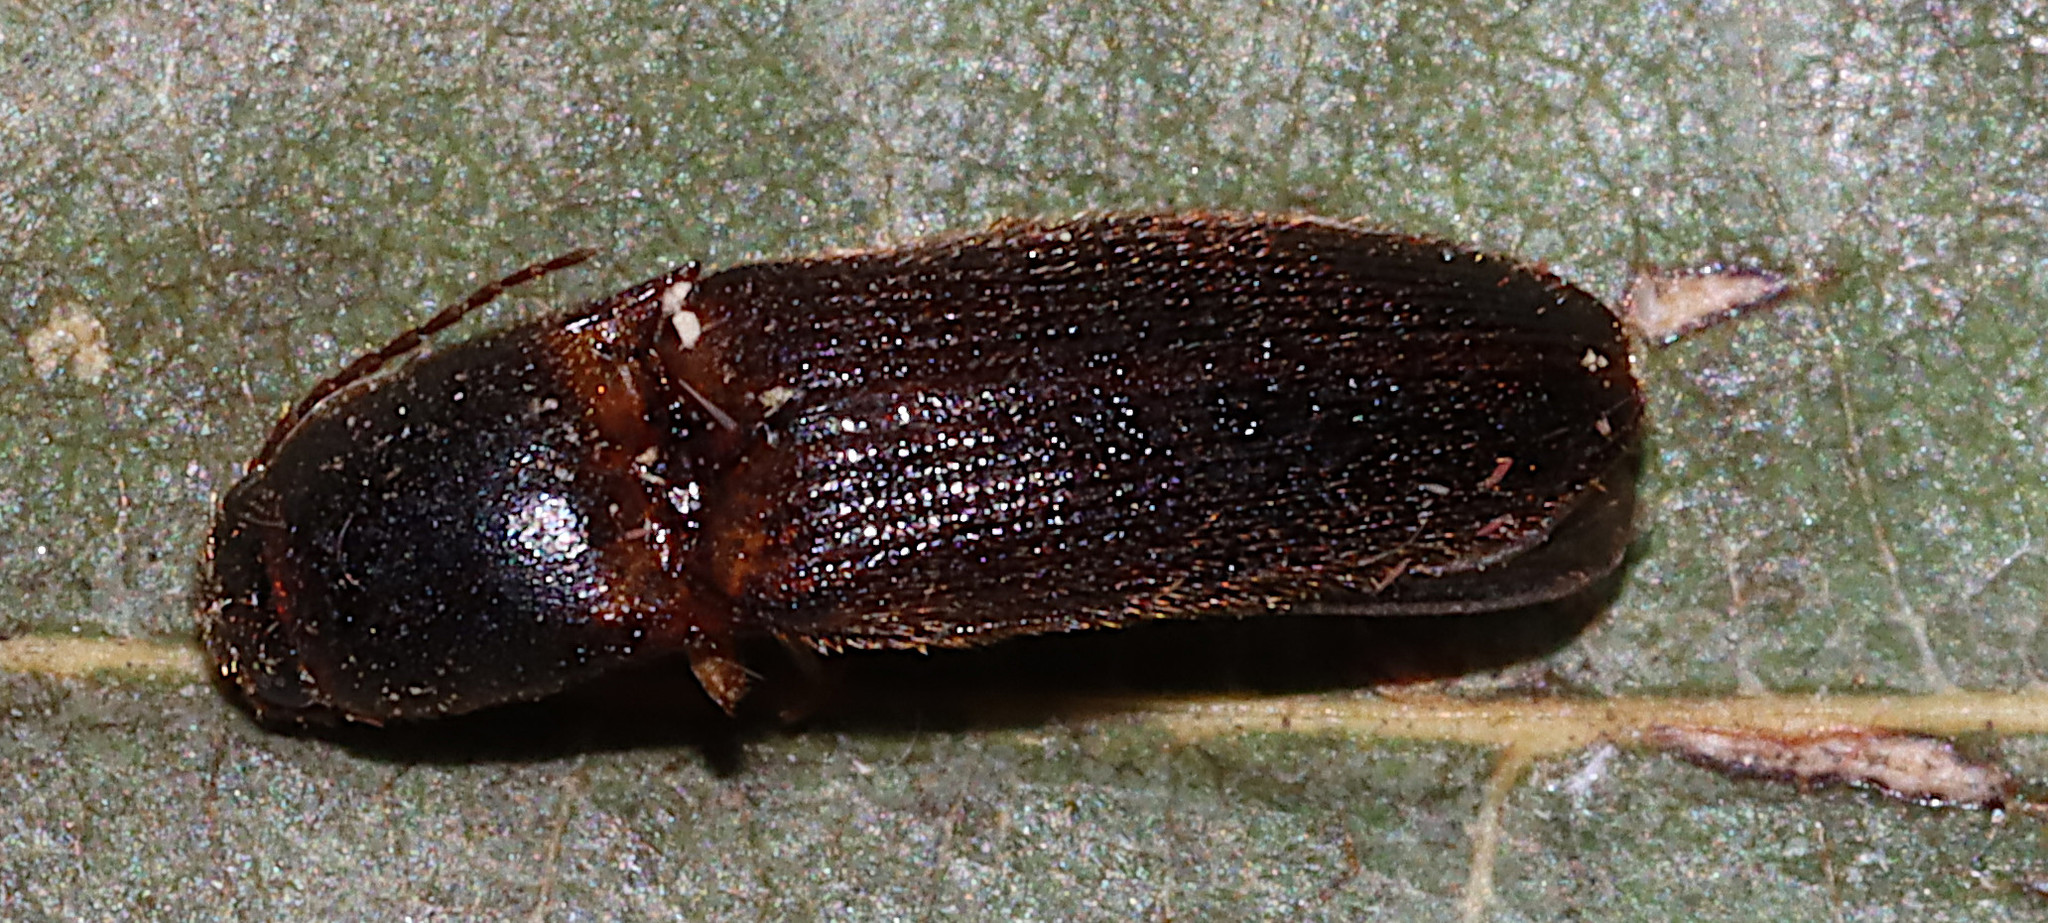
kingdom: Animalia
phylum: Arthropoda
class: Insecta
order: Coleoptera
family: Elateridae
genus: Megapenthes
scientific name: Megapenthes
